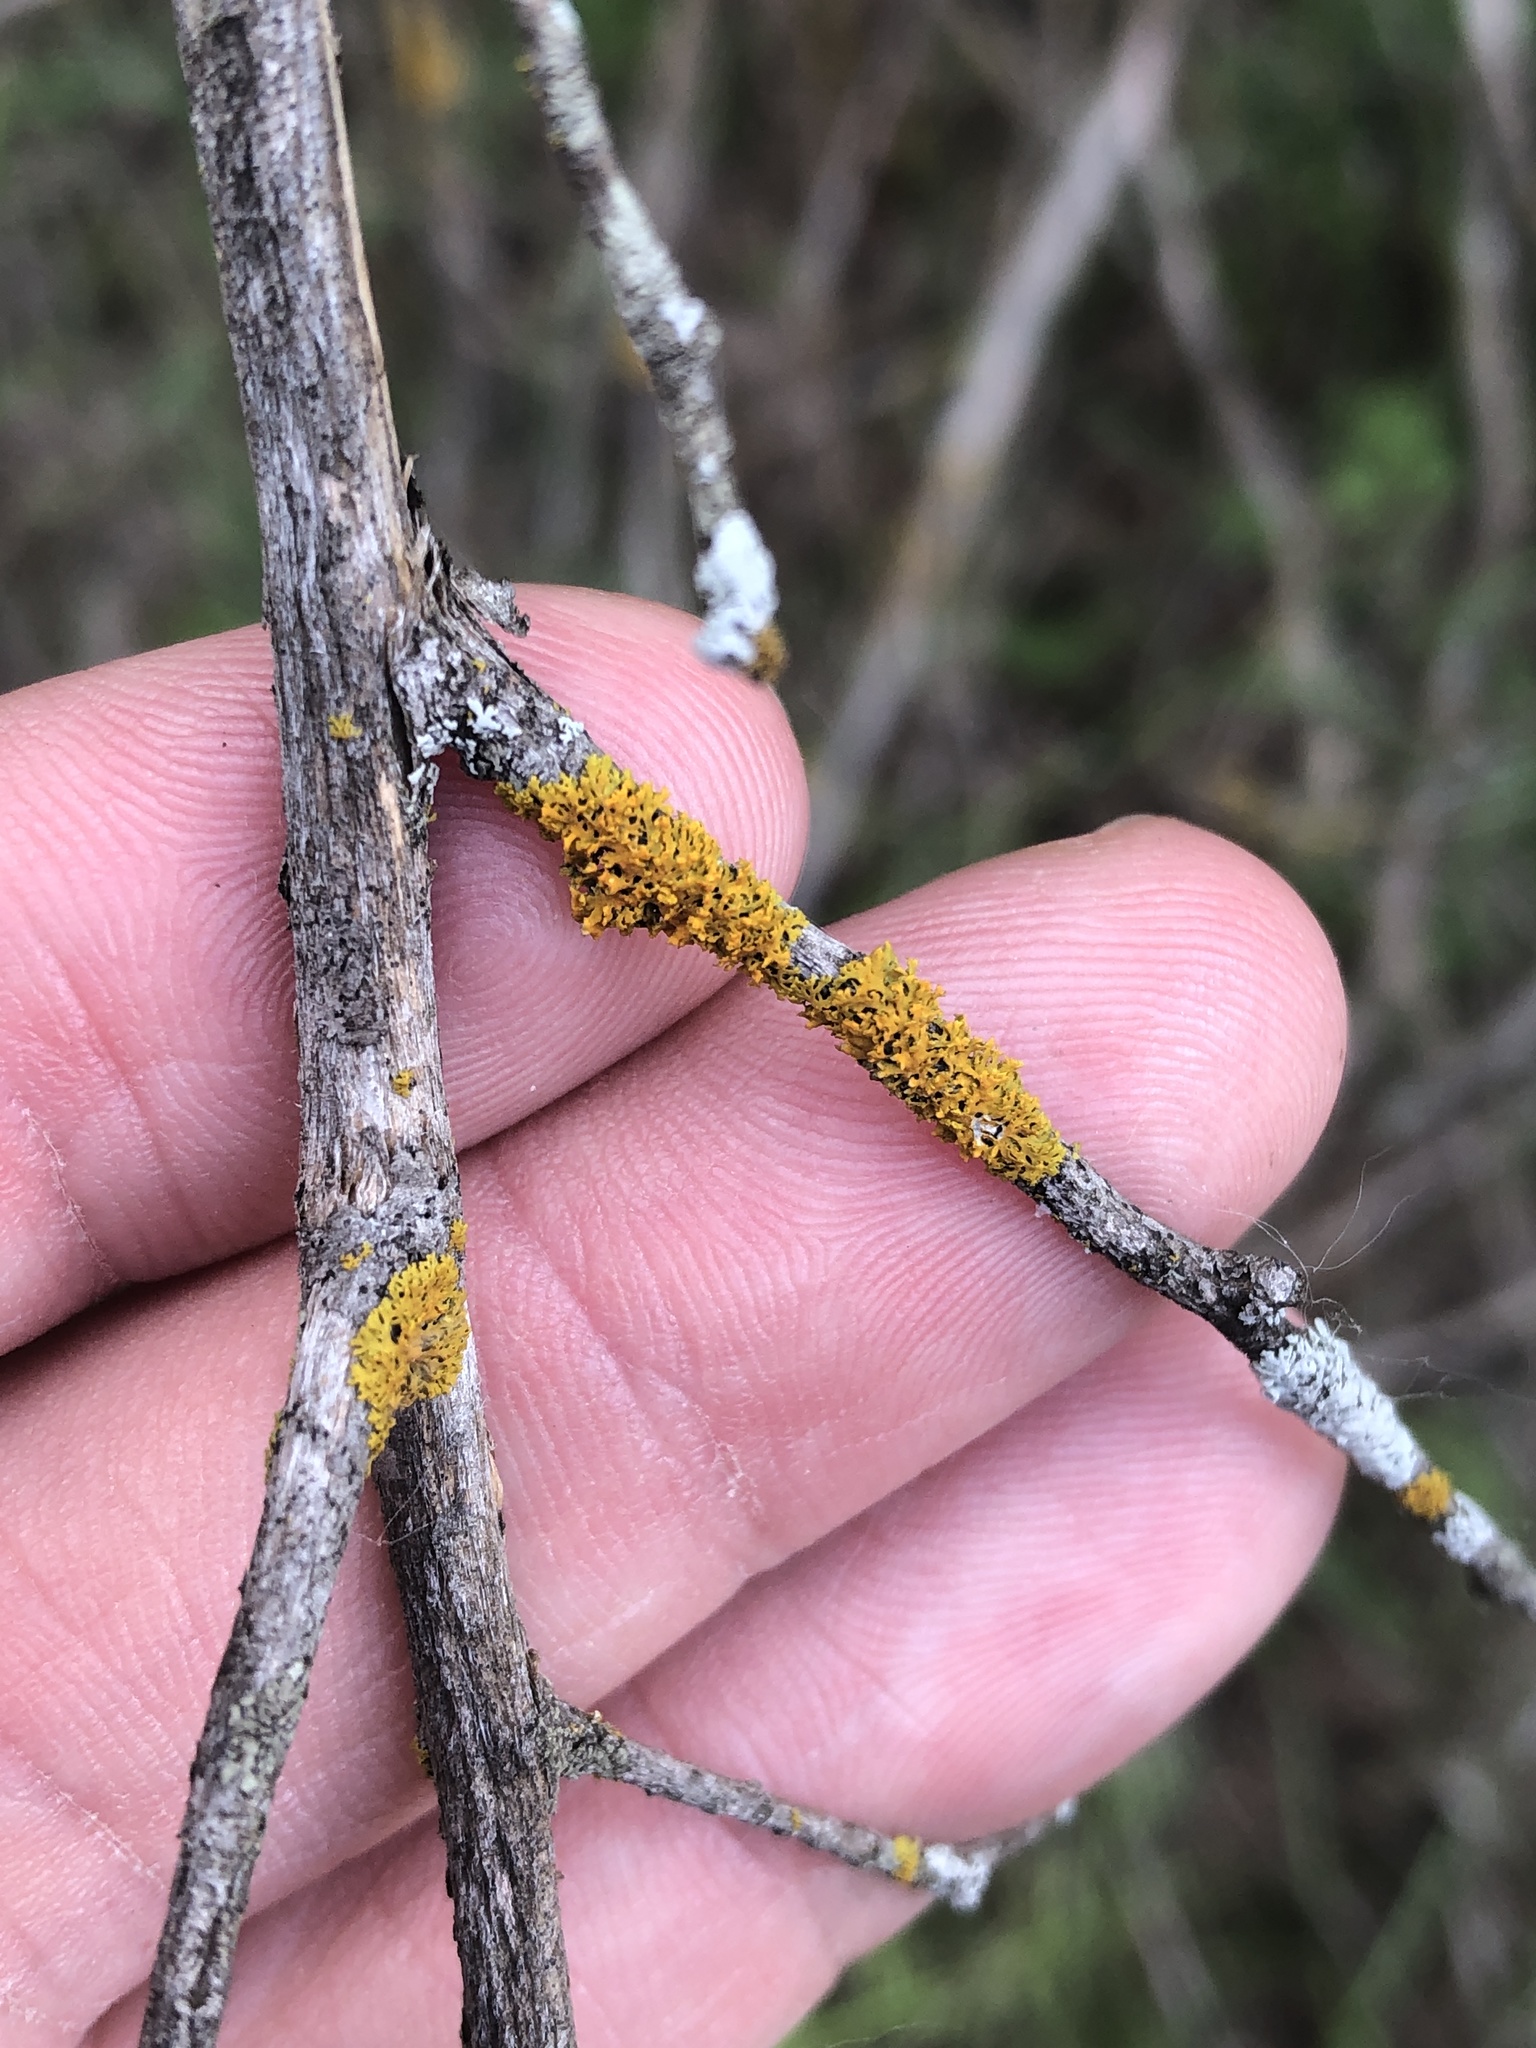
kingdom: Fungi
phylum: Ascomycota
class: Lecanoromycetes
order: Teloschistales
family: Teloschistaceae
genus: Gallowayella
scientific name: Gallowayella weberi
